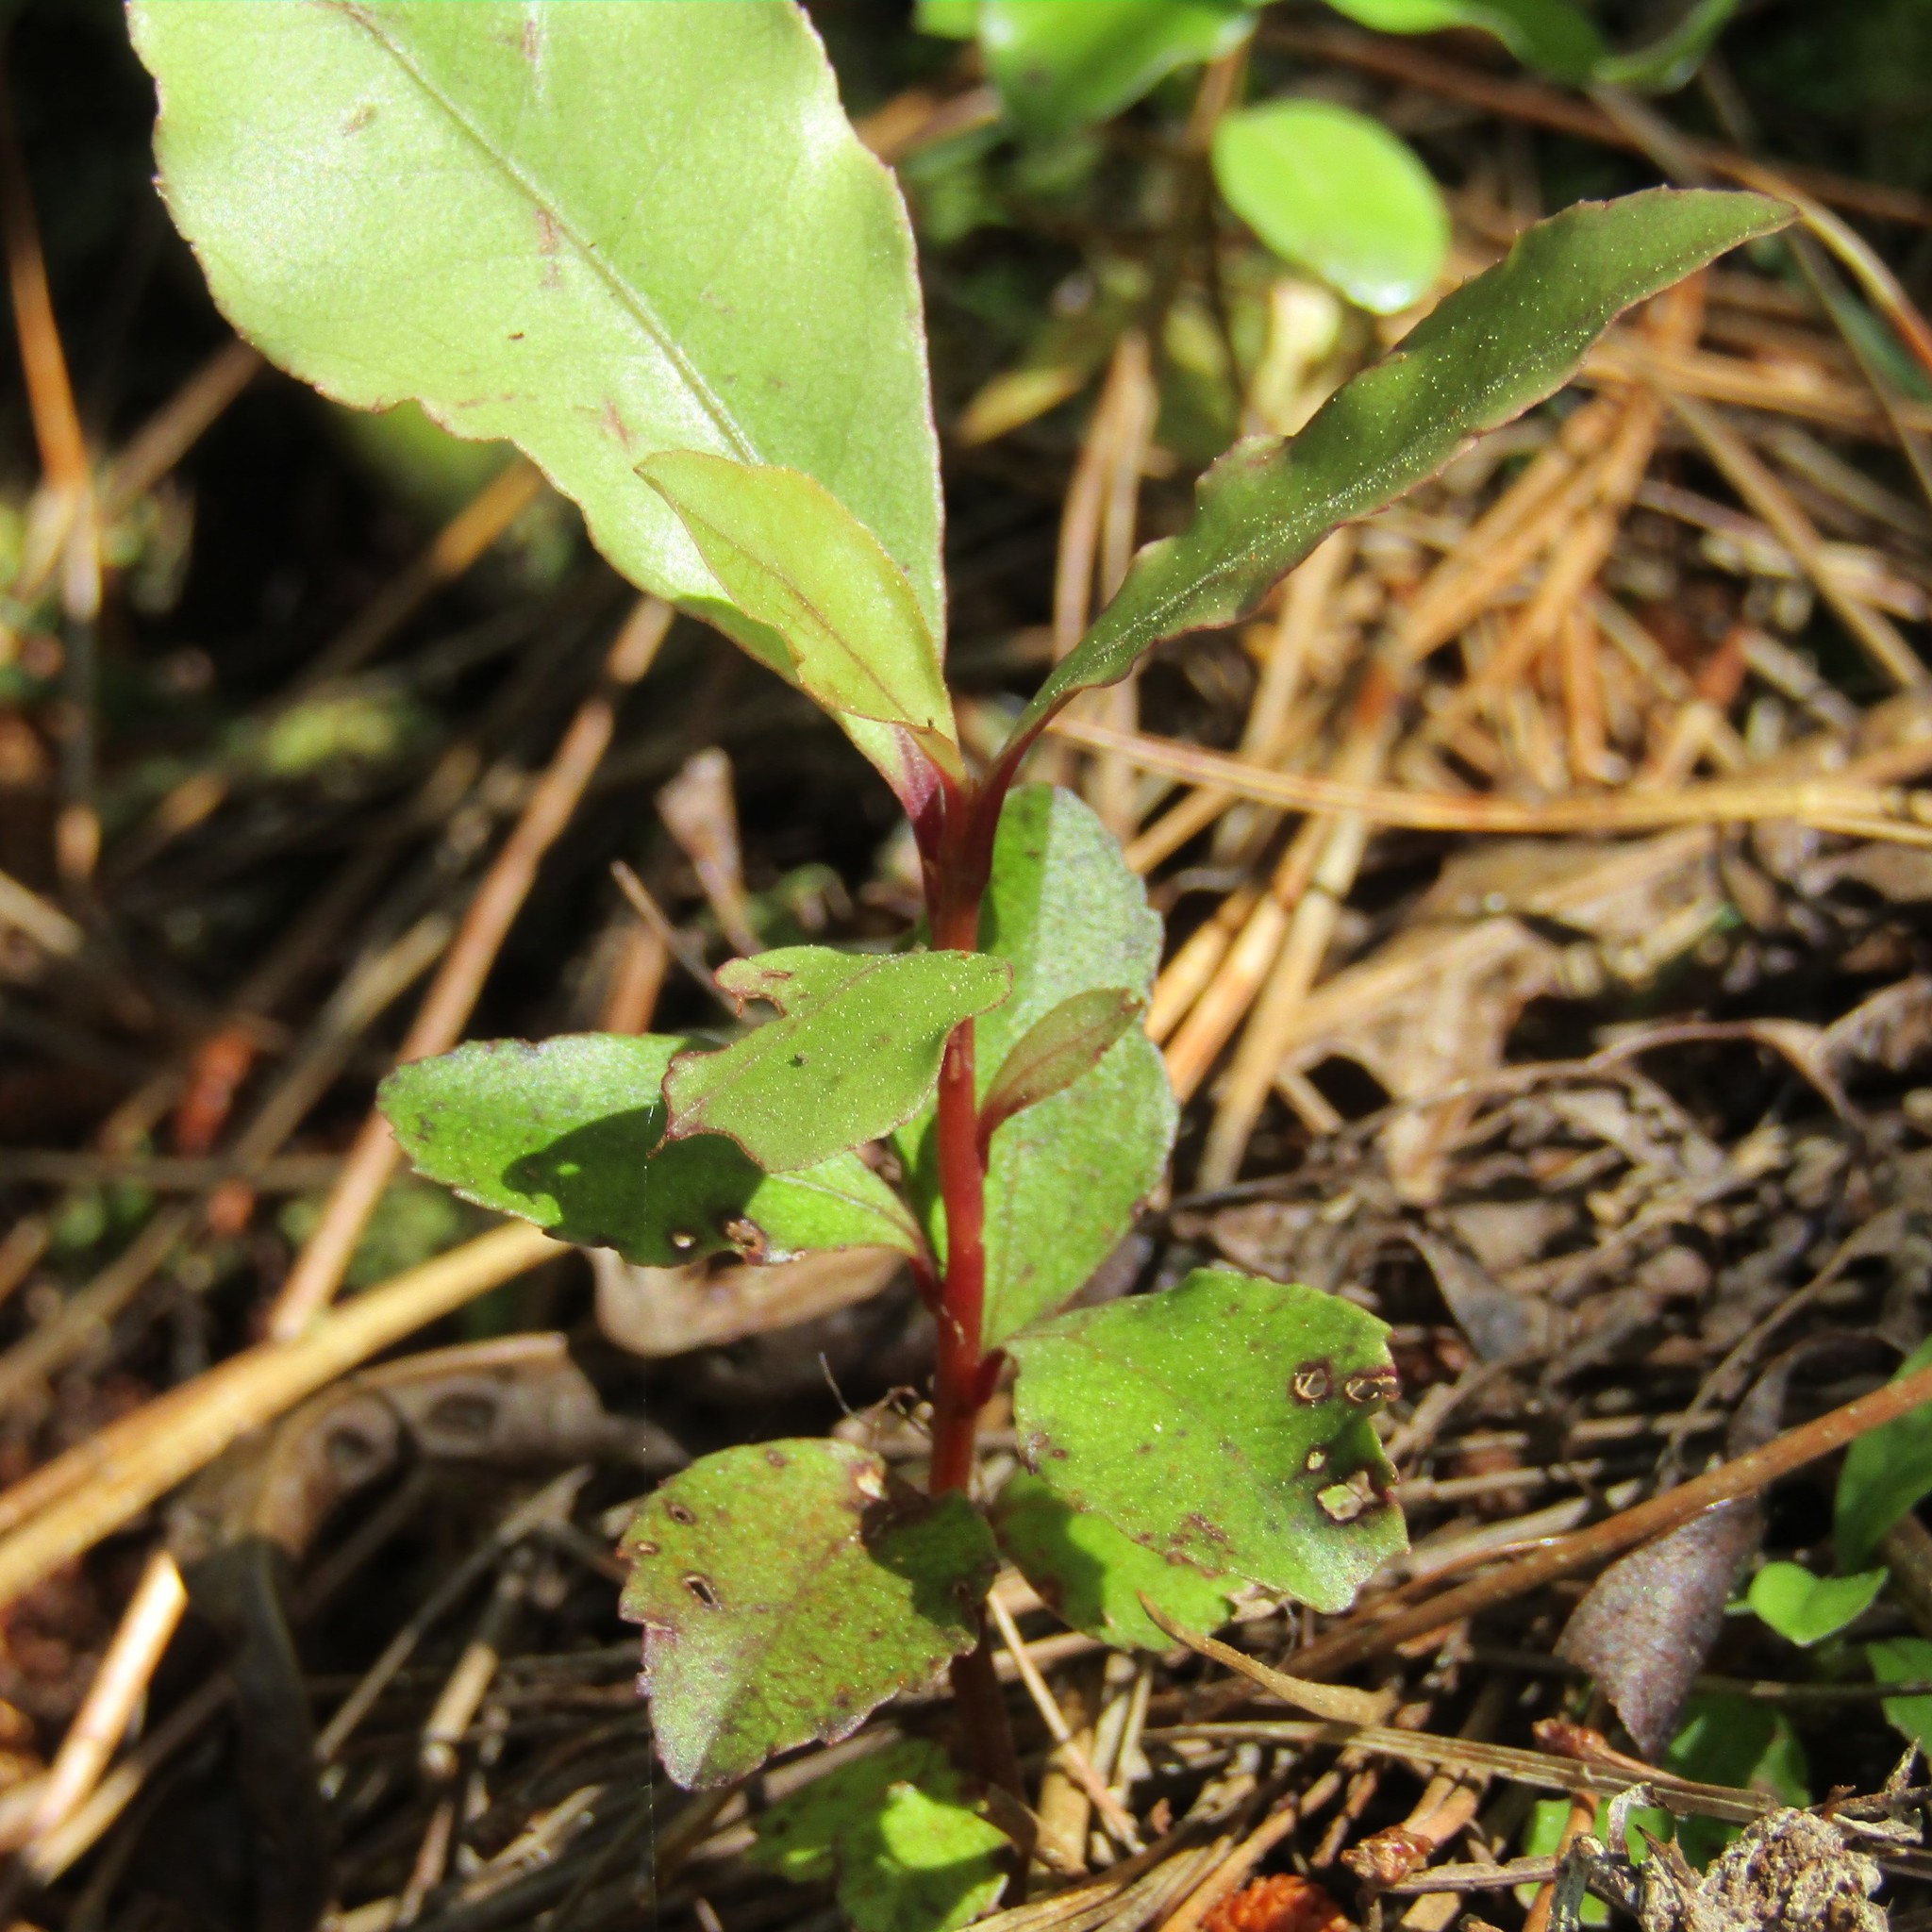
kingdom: Plantae
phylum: Tracheophyta
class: Magnoliopsida
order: Ericales
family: Primulaceae
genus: Myrsine
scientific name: Myrsine australis
